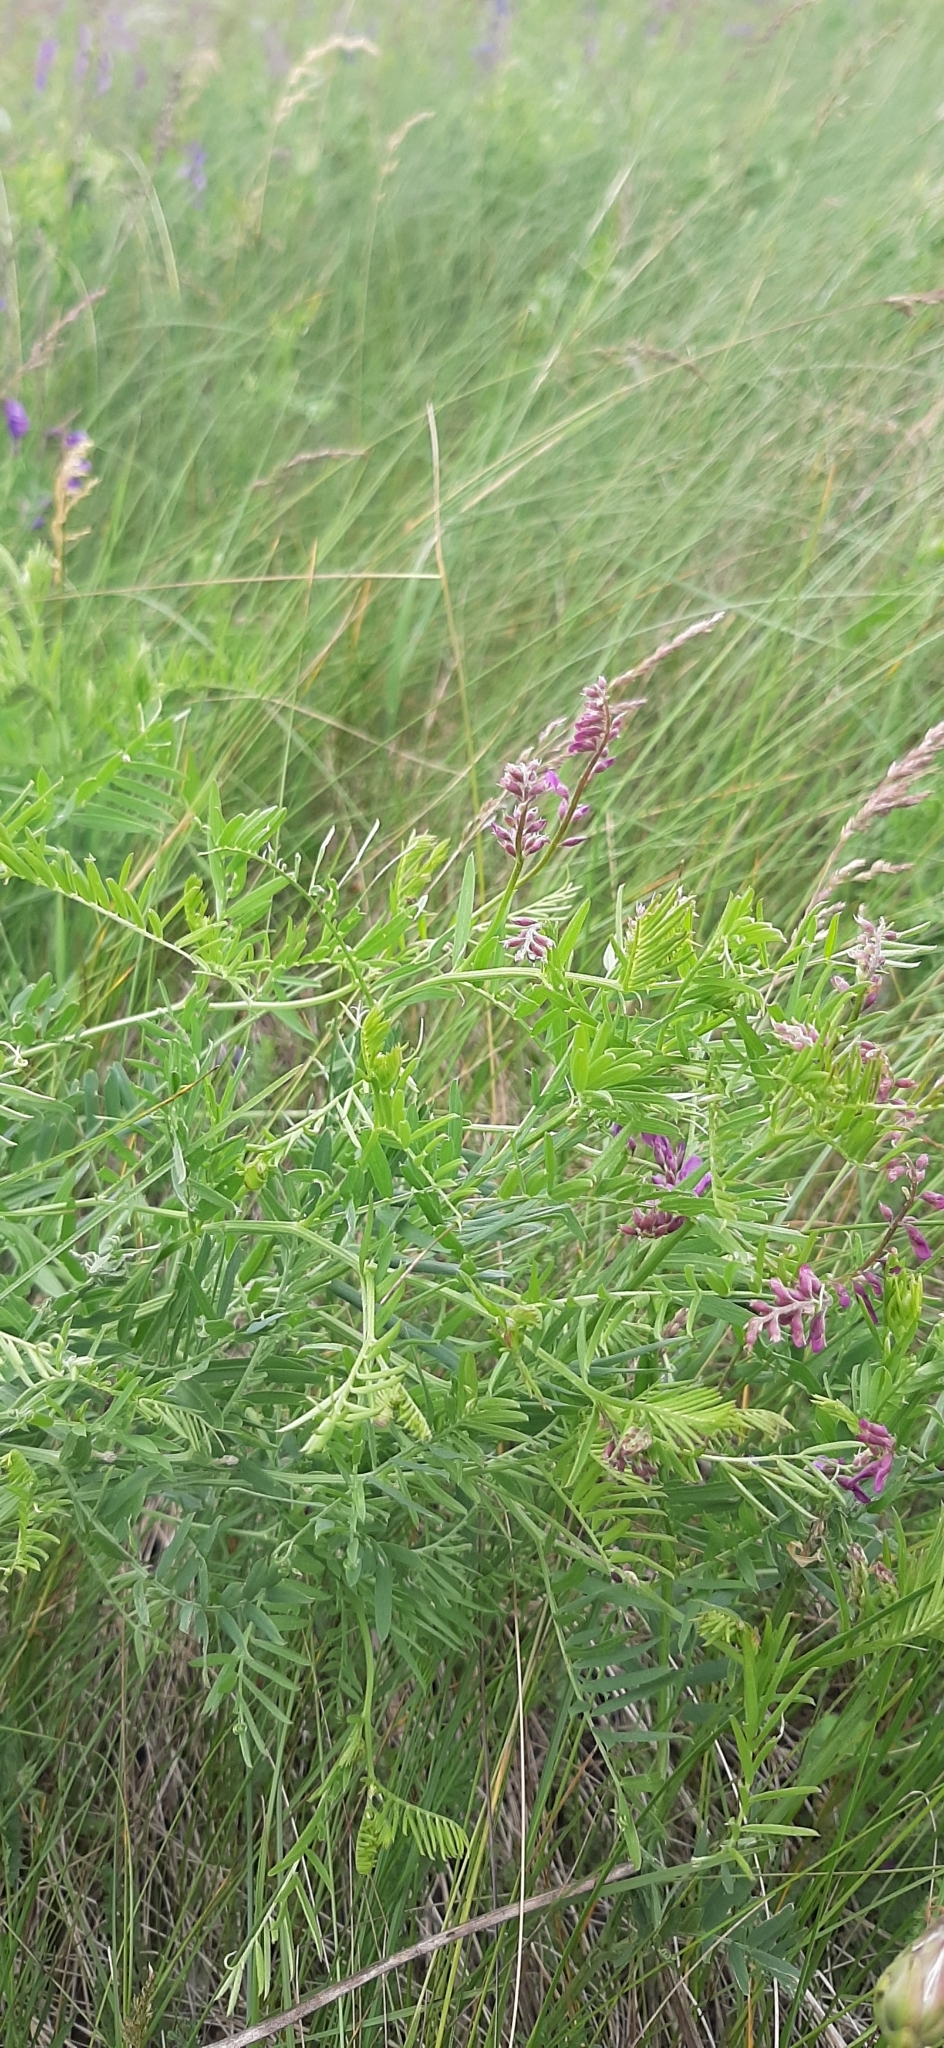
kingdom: Plantae
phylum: Tracheophyta
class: Magnoliopsida
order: Fabales
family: Fabaceae
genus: Vicia
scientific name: Vicia tenuifolia
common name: Fine-leaved vetch
